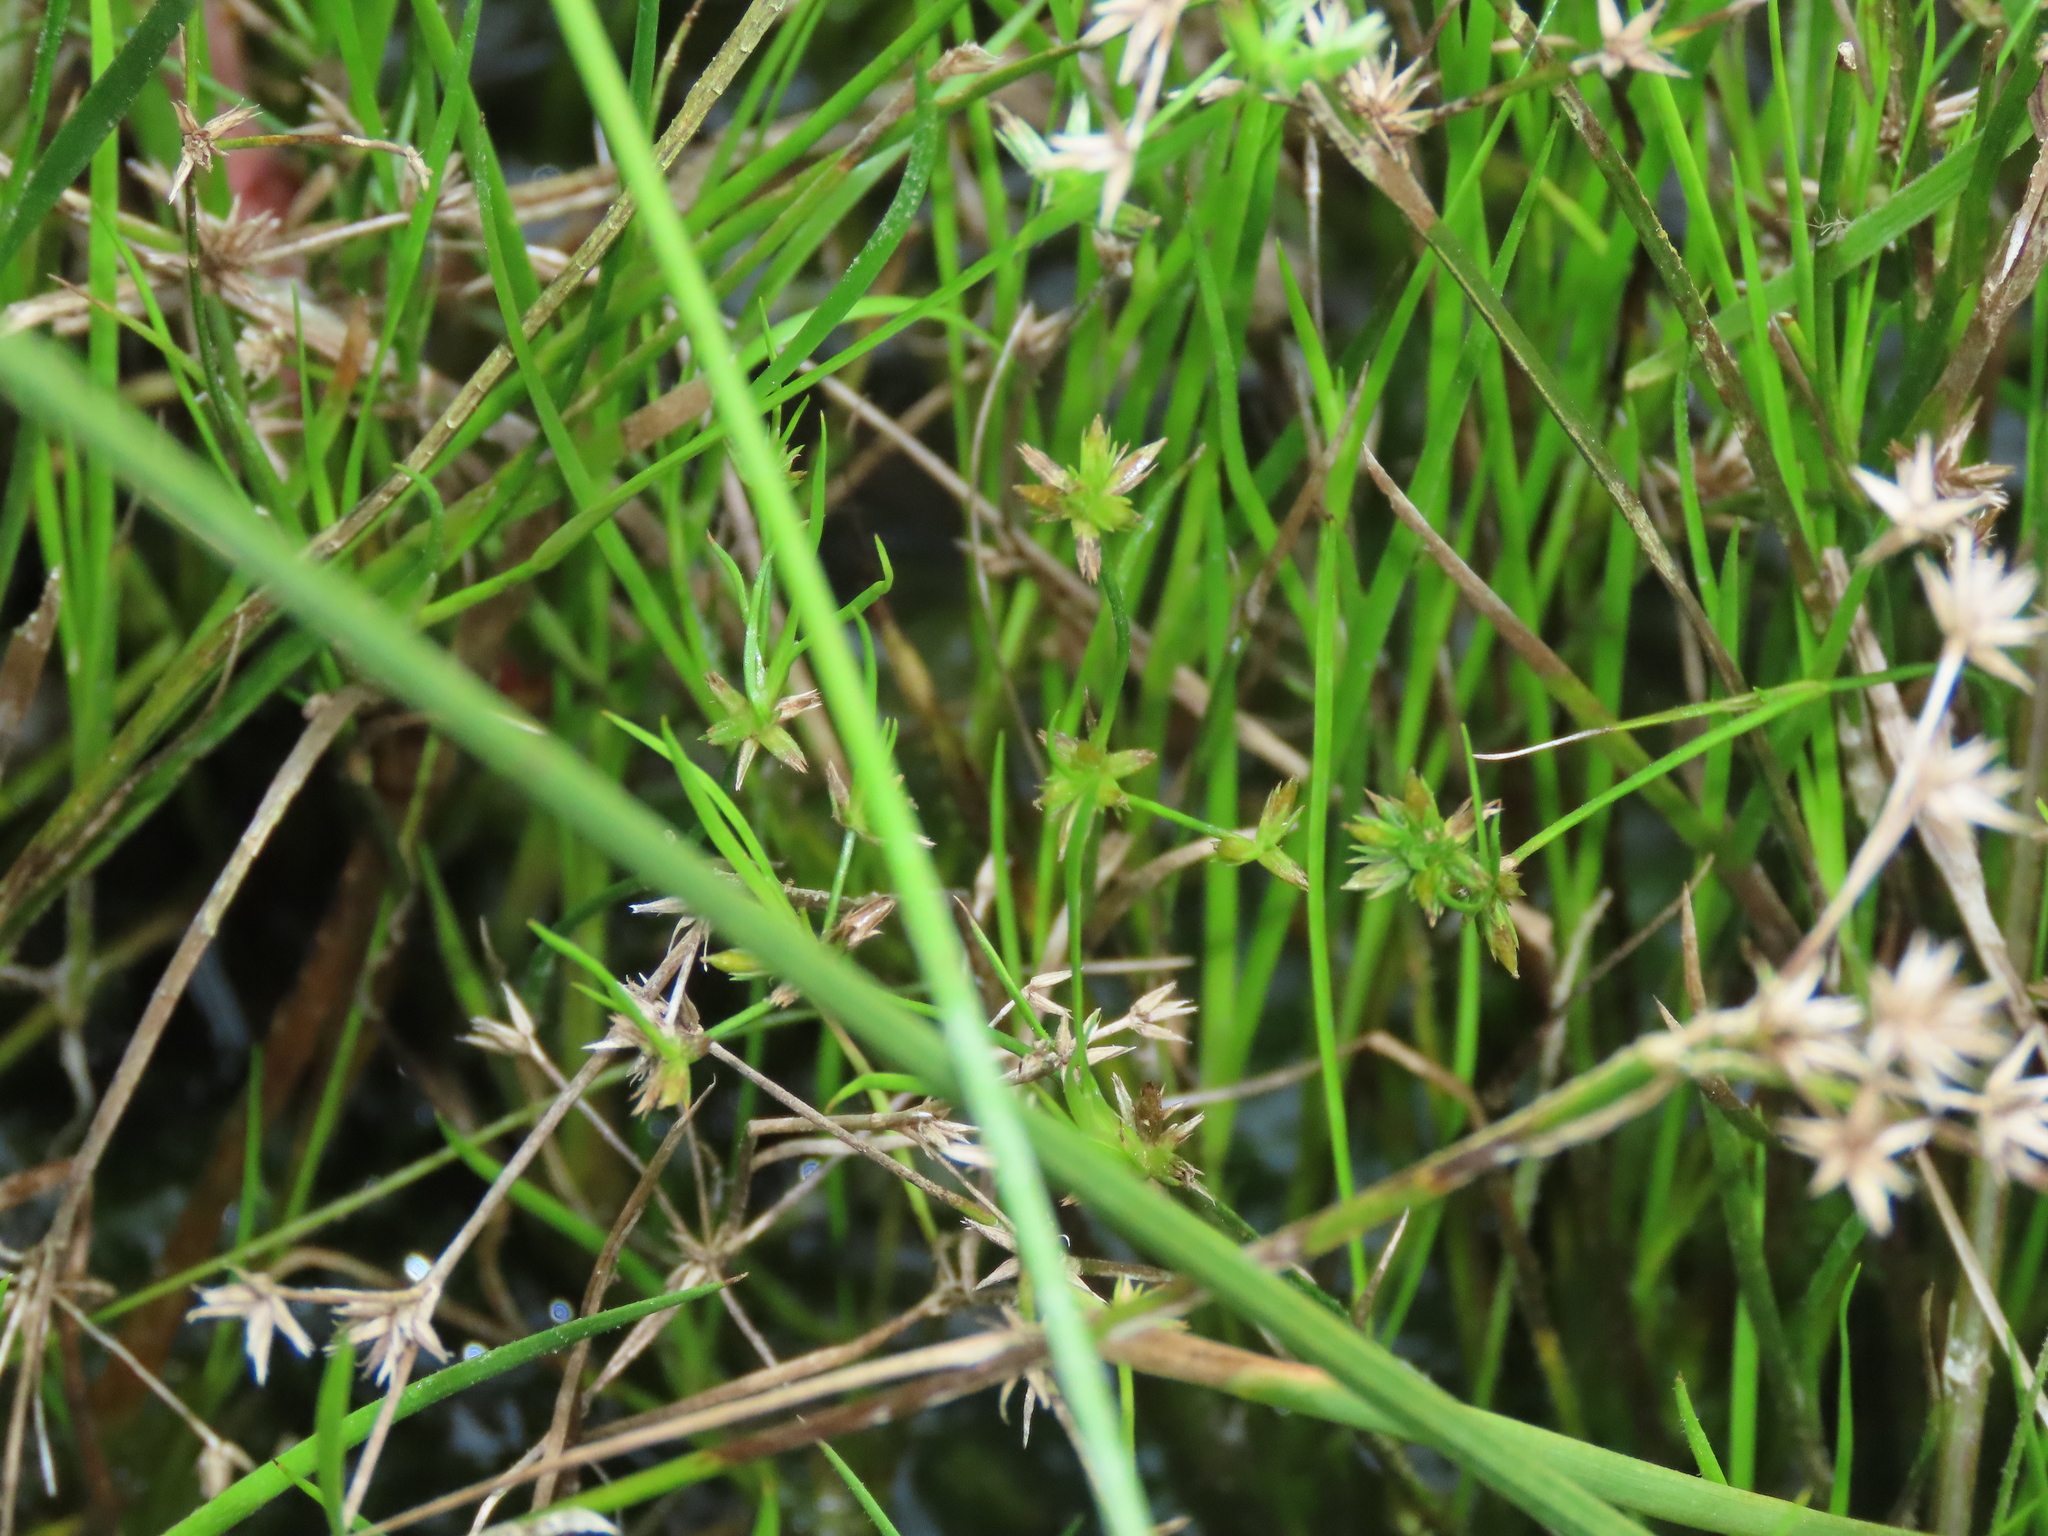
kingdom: Plantae
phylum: Tracheophyta
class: Liliopsida
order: Poales
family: Juncaceae
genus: Juncus
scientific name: Juncus prismatocarpus
